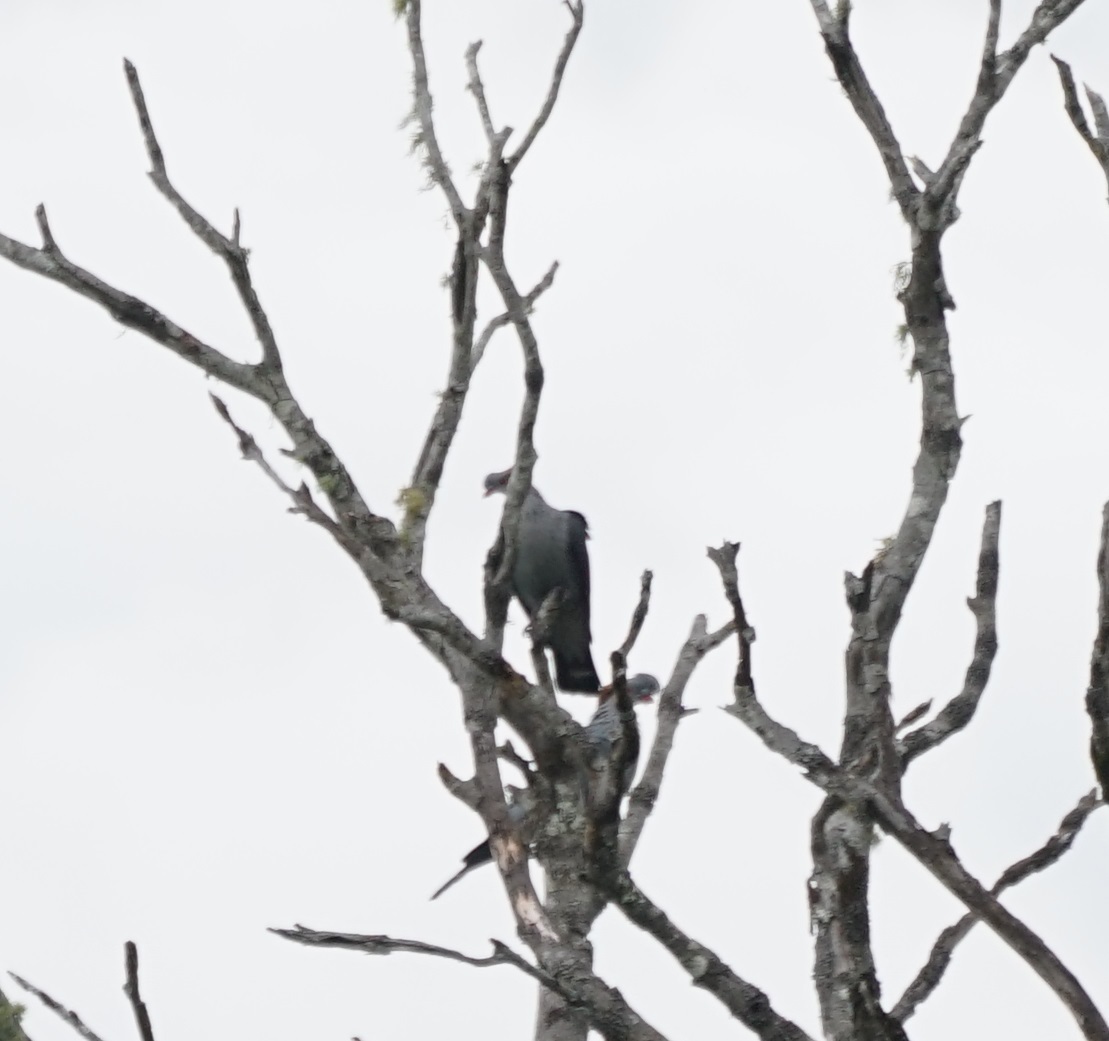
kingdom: Animalia
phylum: Chordata
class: Aves
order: Columbiformes
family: Columbidae
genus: Lopholaimus
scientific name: Lopholaimus antarcticus
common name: Topknot pigeon
